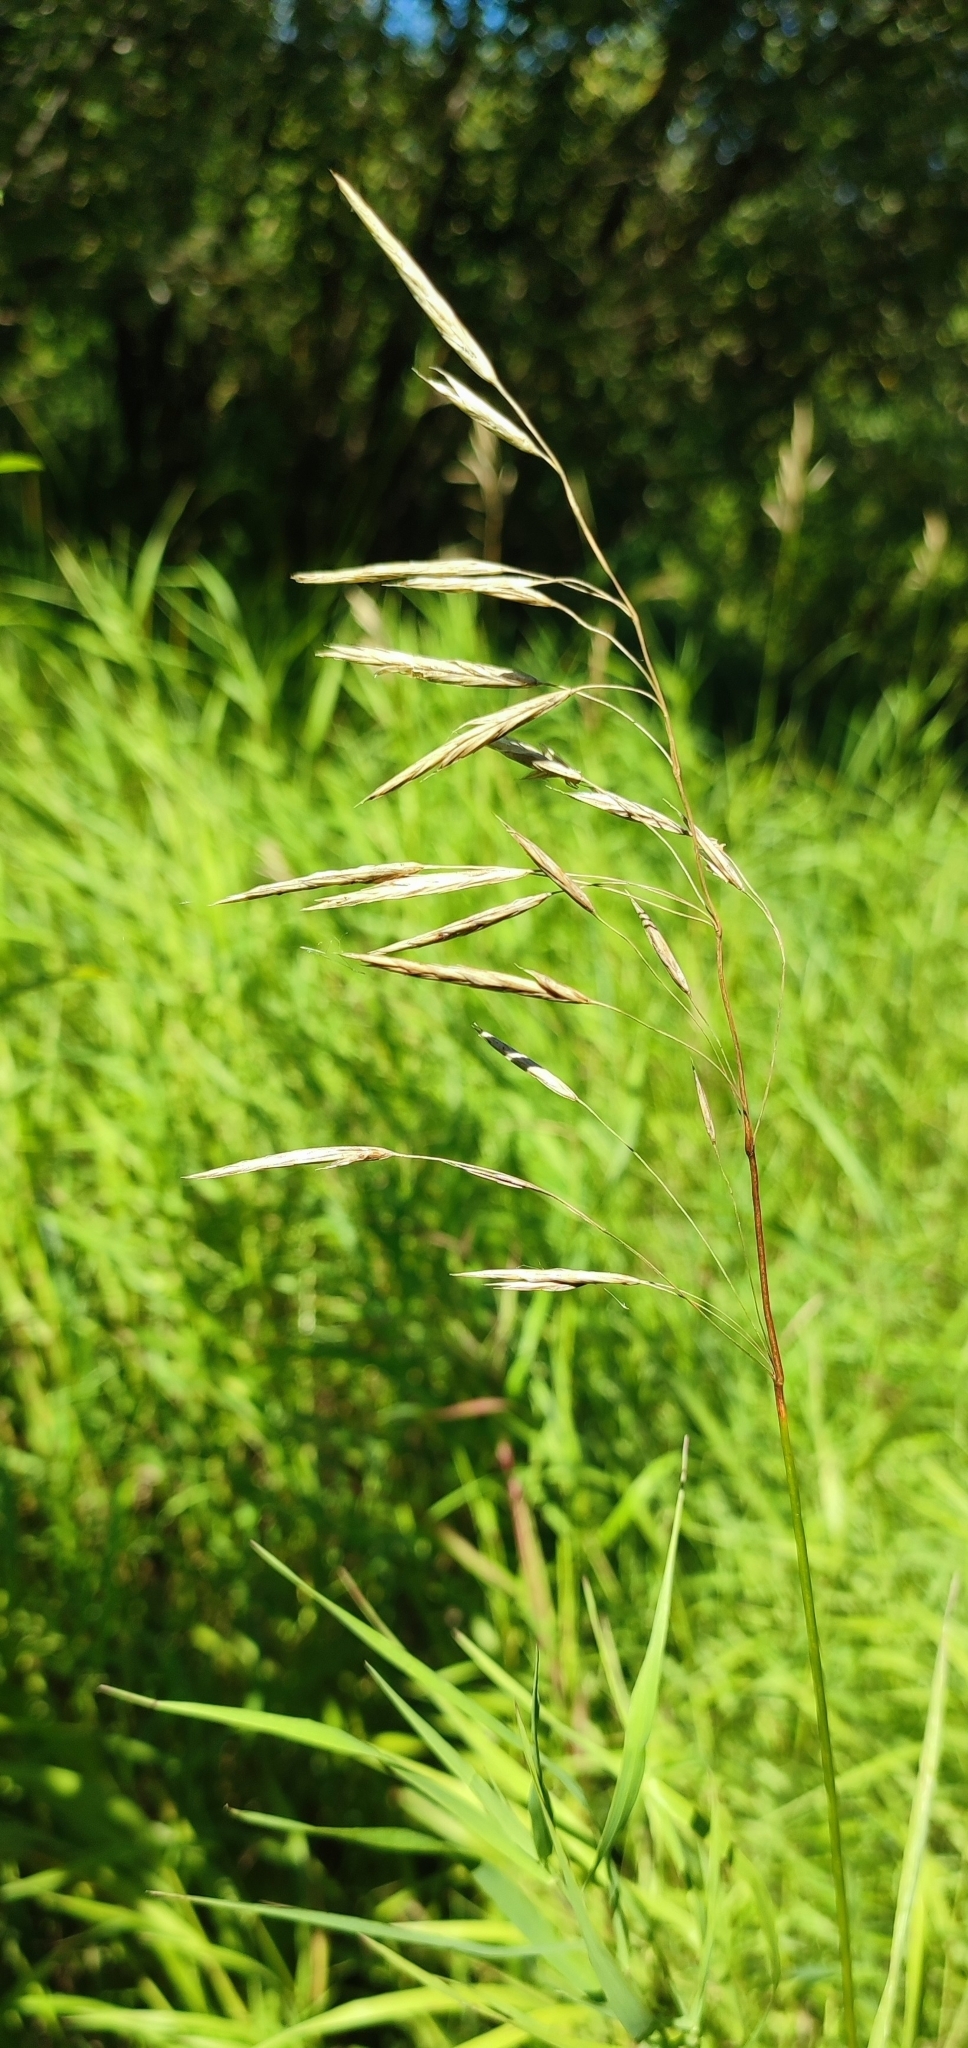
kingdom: Plantae
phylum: Tracheophyta
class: Liliopsida
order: Poales
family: Poaceae
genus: Bromus
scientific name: Bromus inermis
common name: Smooth brome
